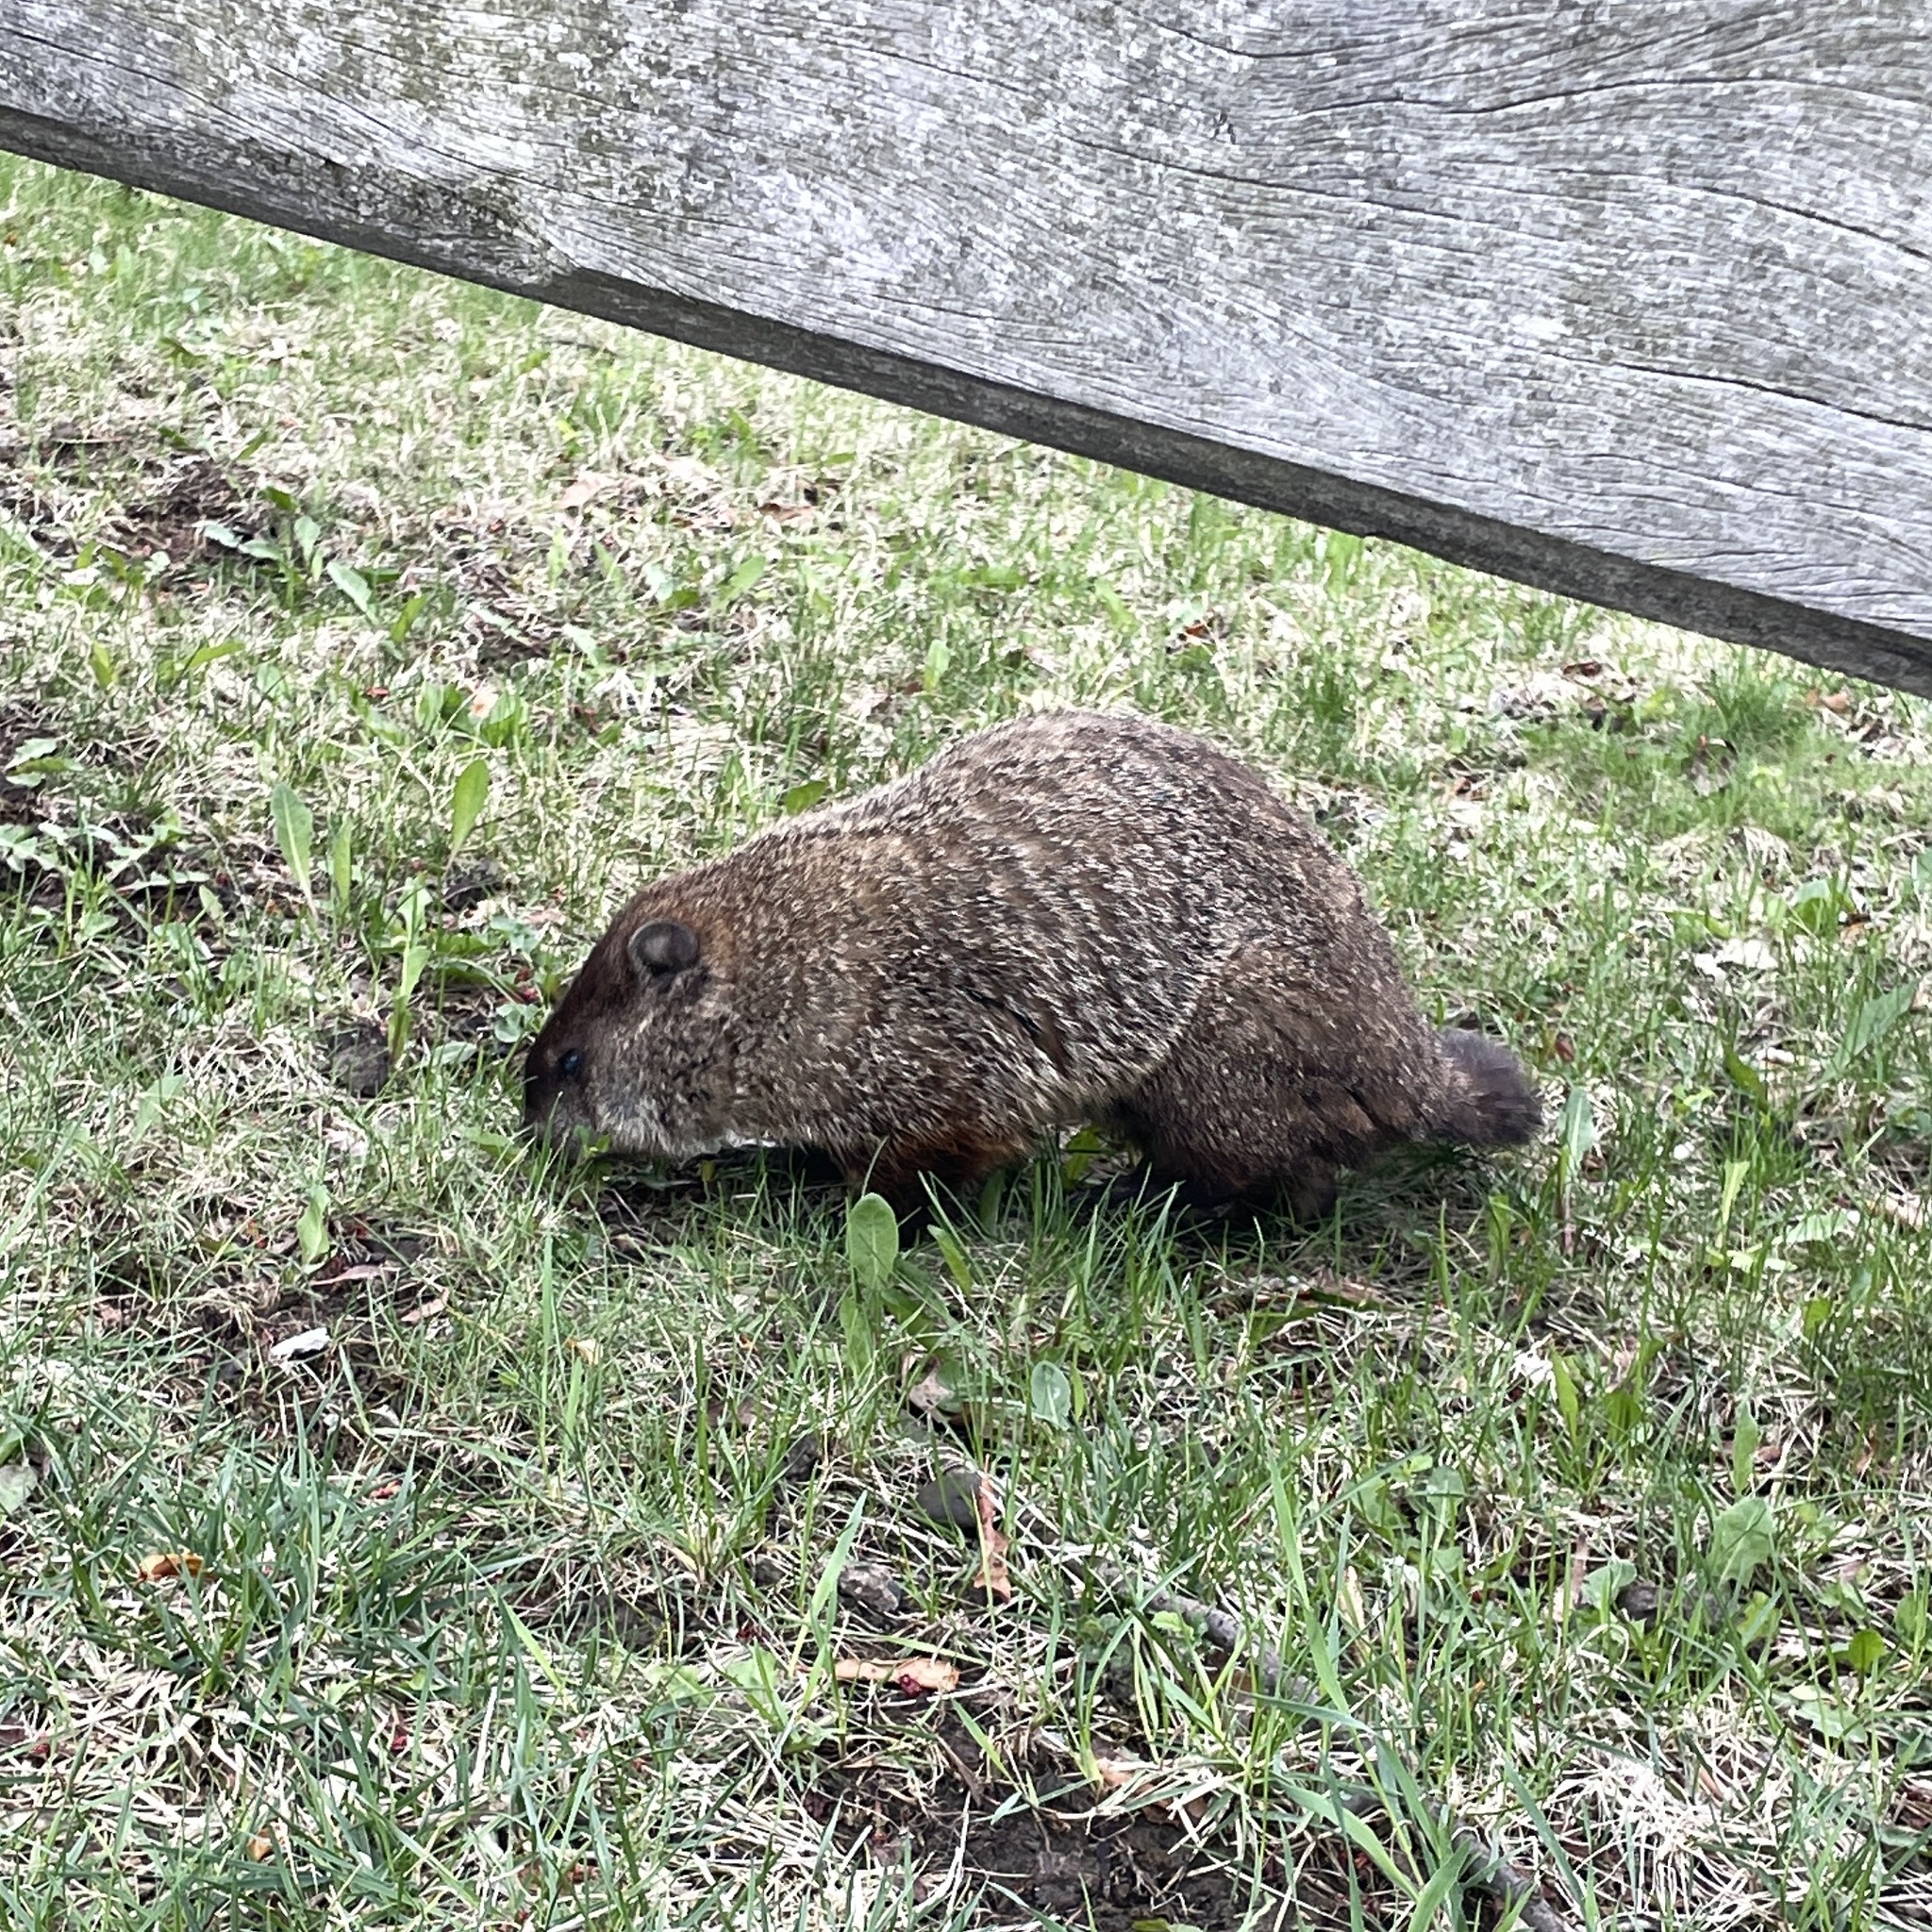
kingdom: Animalia
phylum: Chordata
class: Mammalia
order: Rodentia
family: Sciuridae
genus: Marmota
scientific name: Marmota monax
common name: Groundhog
